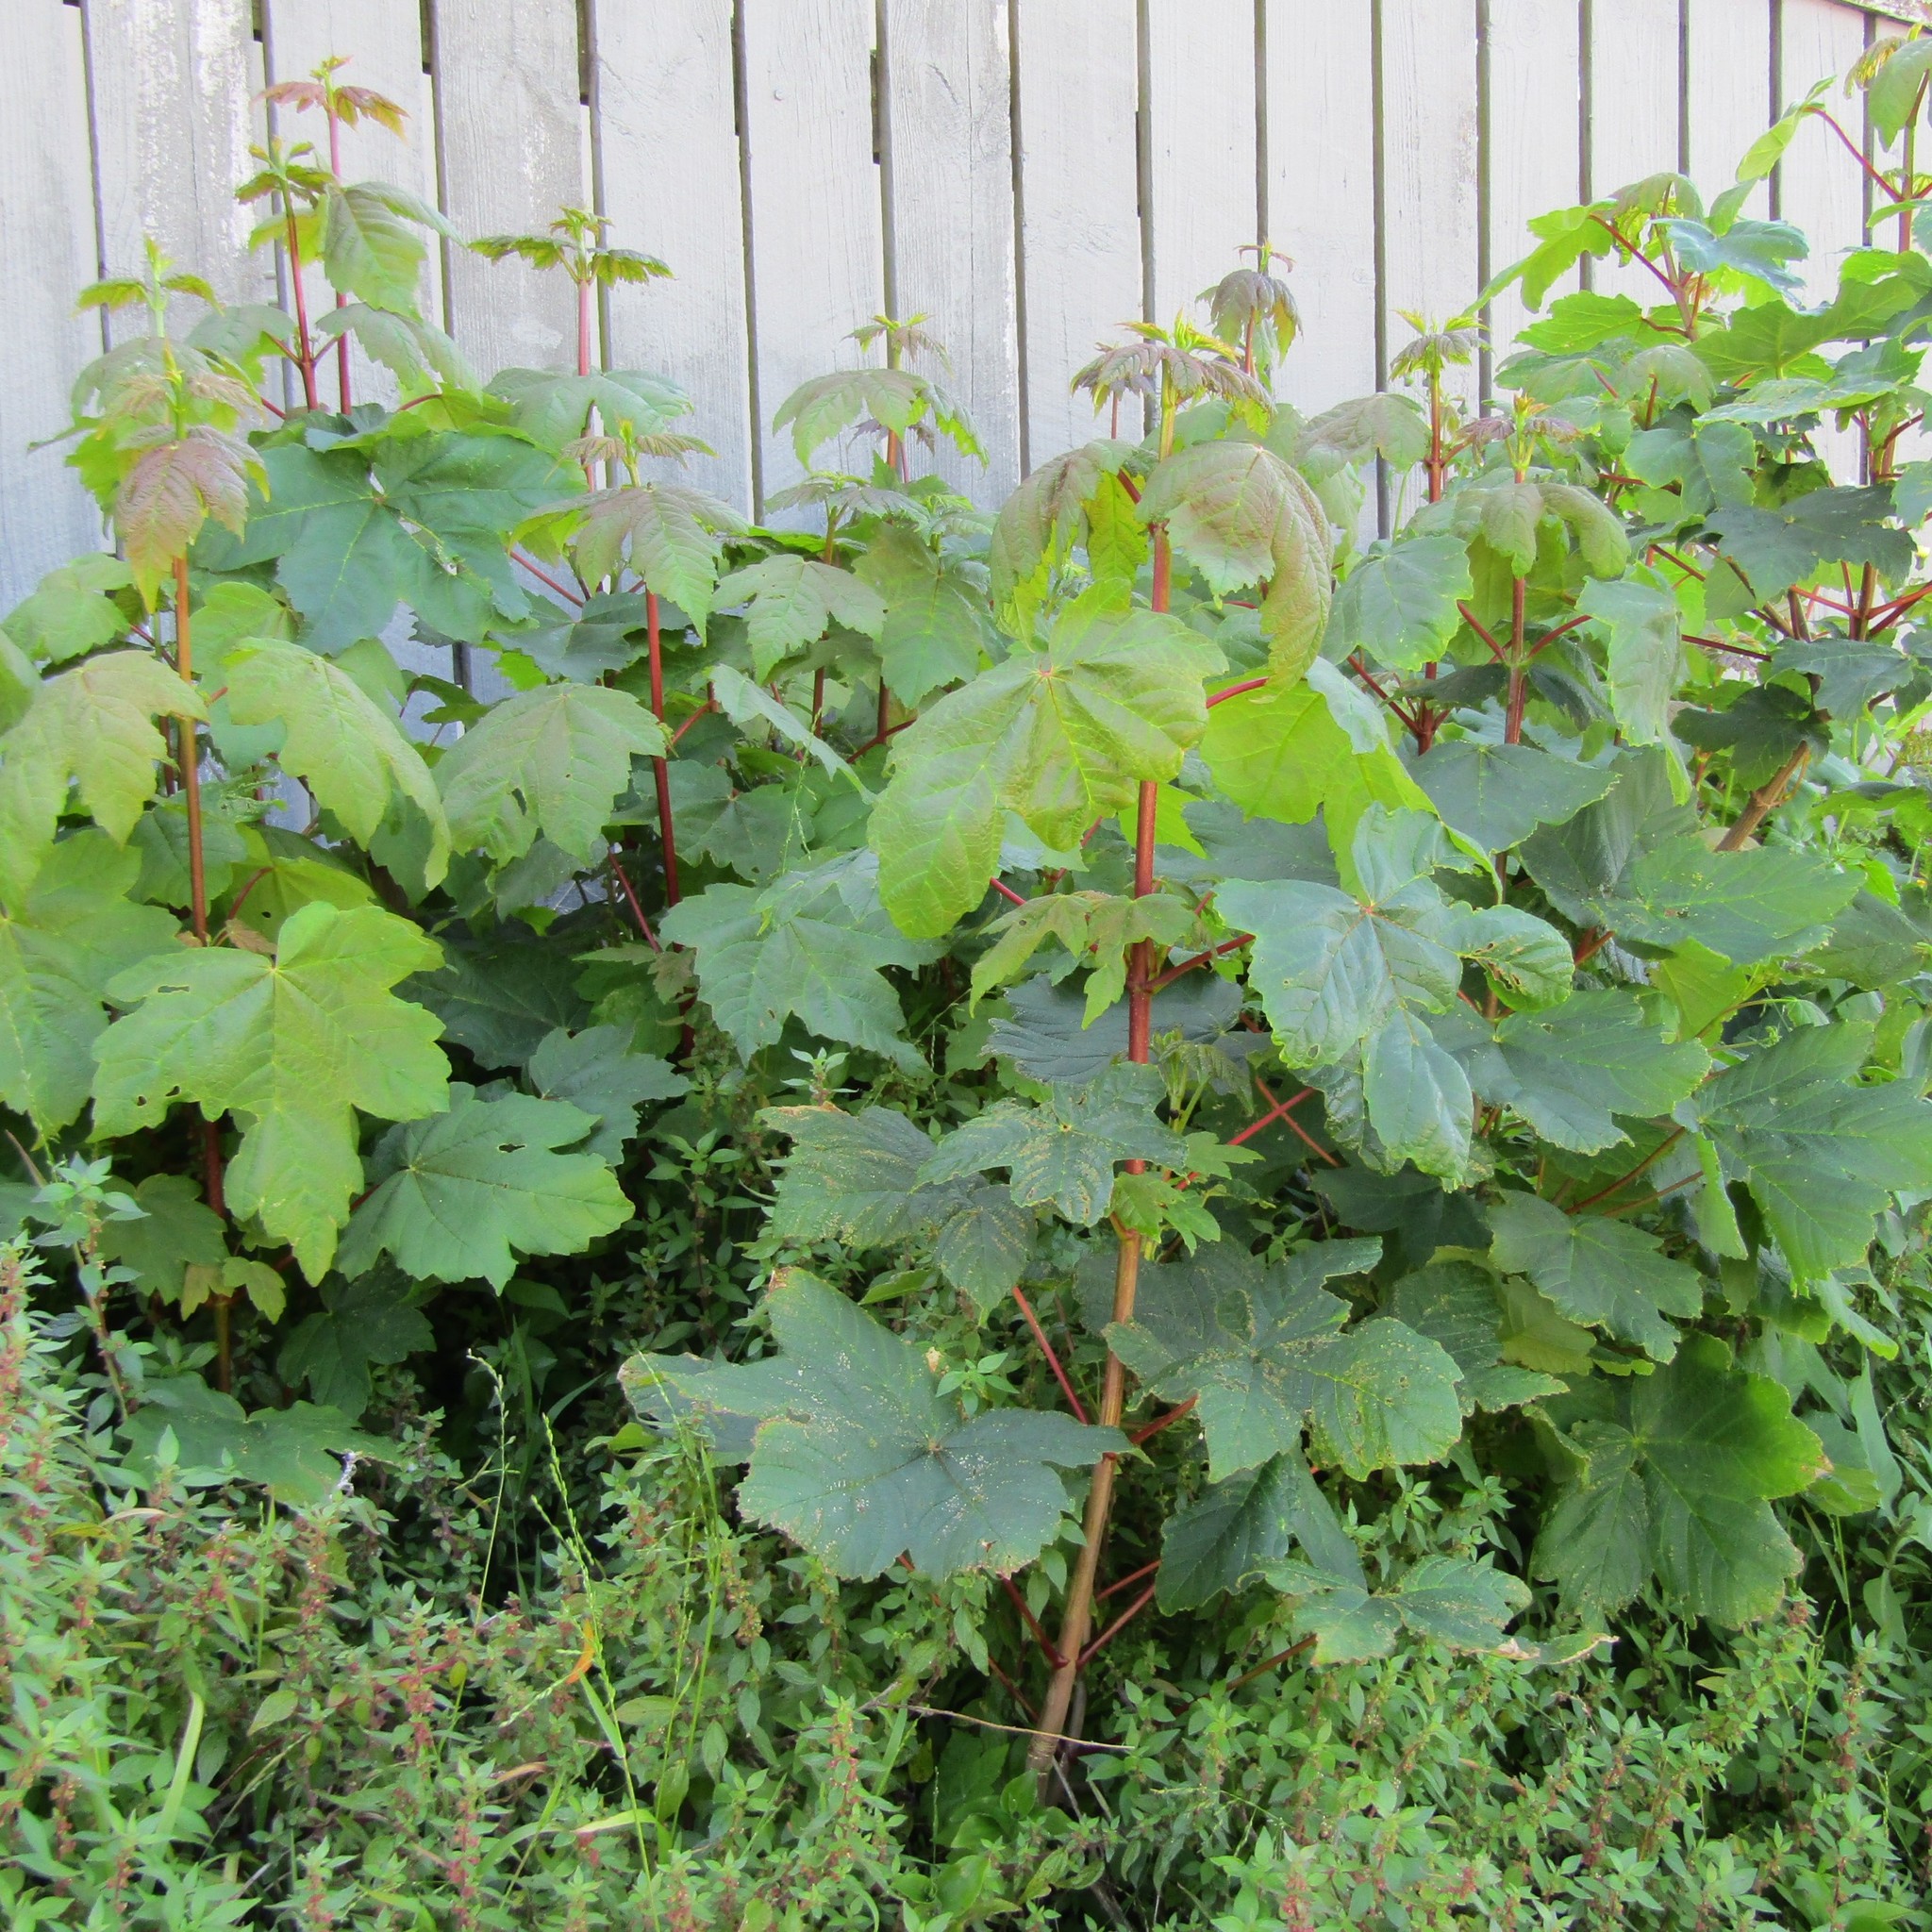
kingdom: Plantae
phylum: Tracheophyta
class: Magnoliopsida
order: Sapindales
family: Sapindaceae
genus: Acer
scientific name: Acer pseudoplatanus
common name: Sycamore
